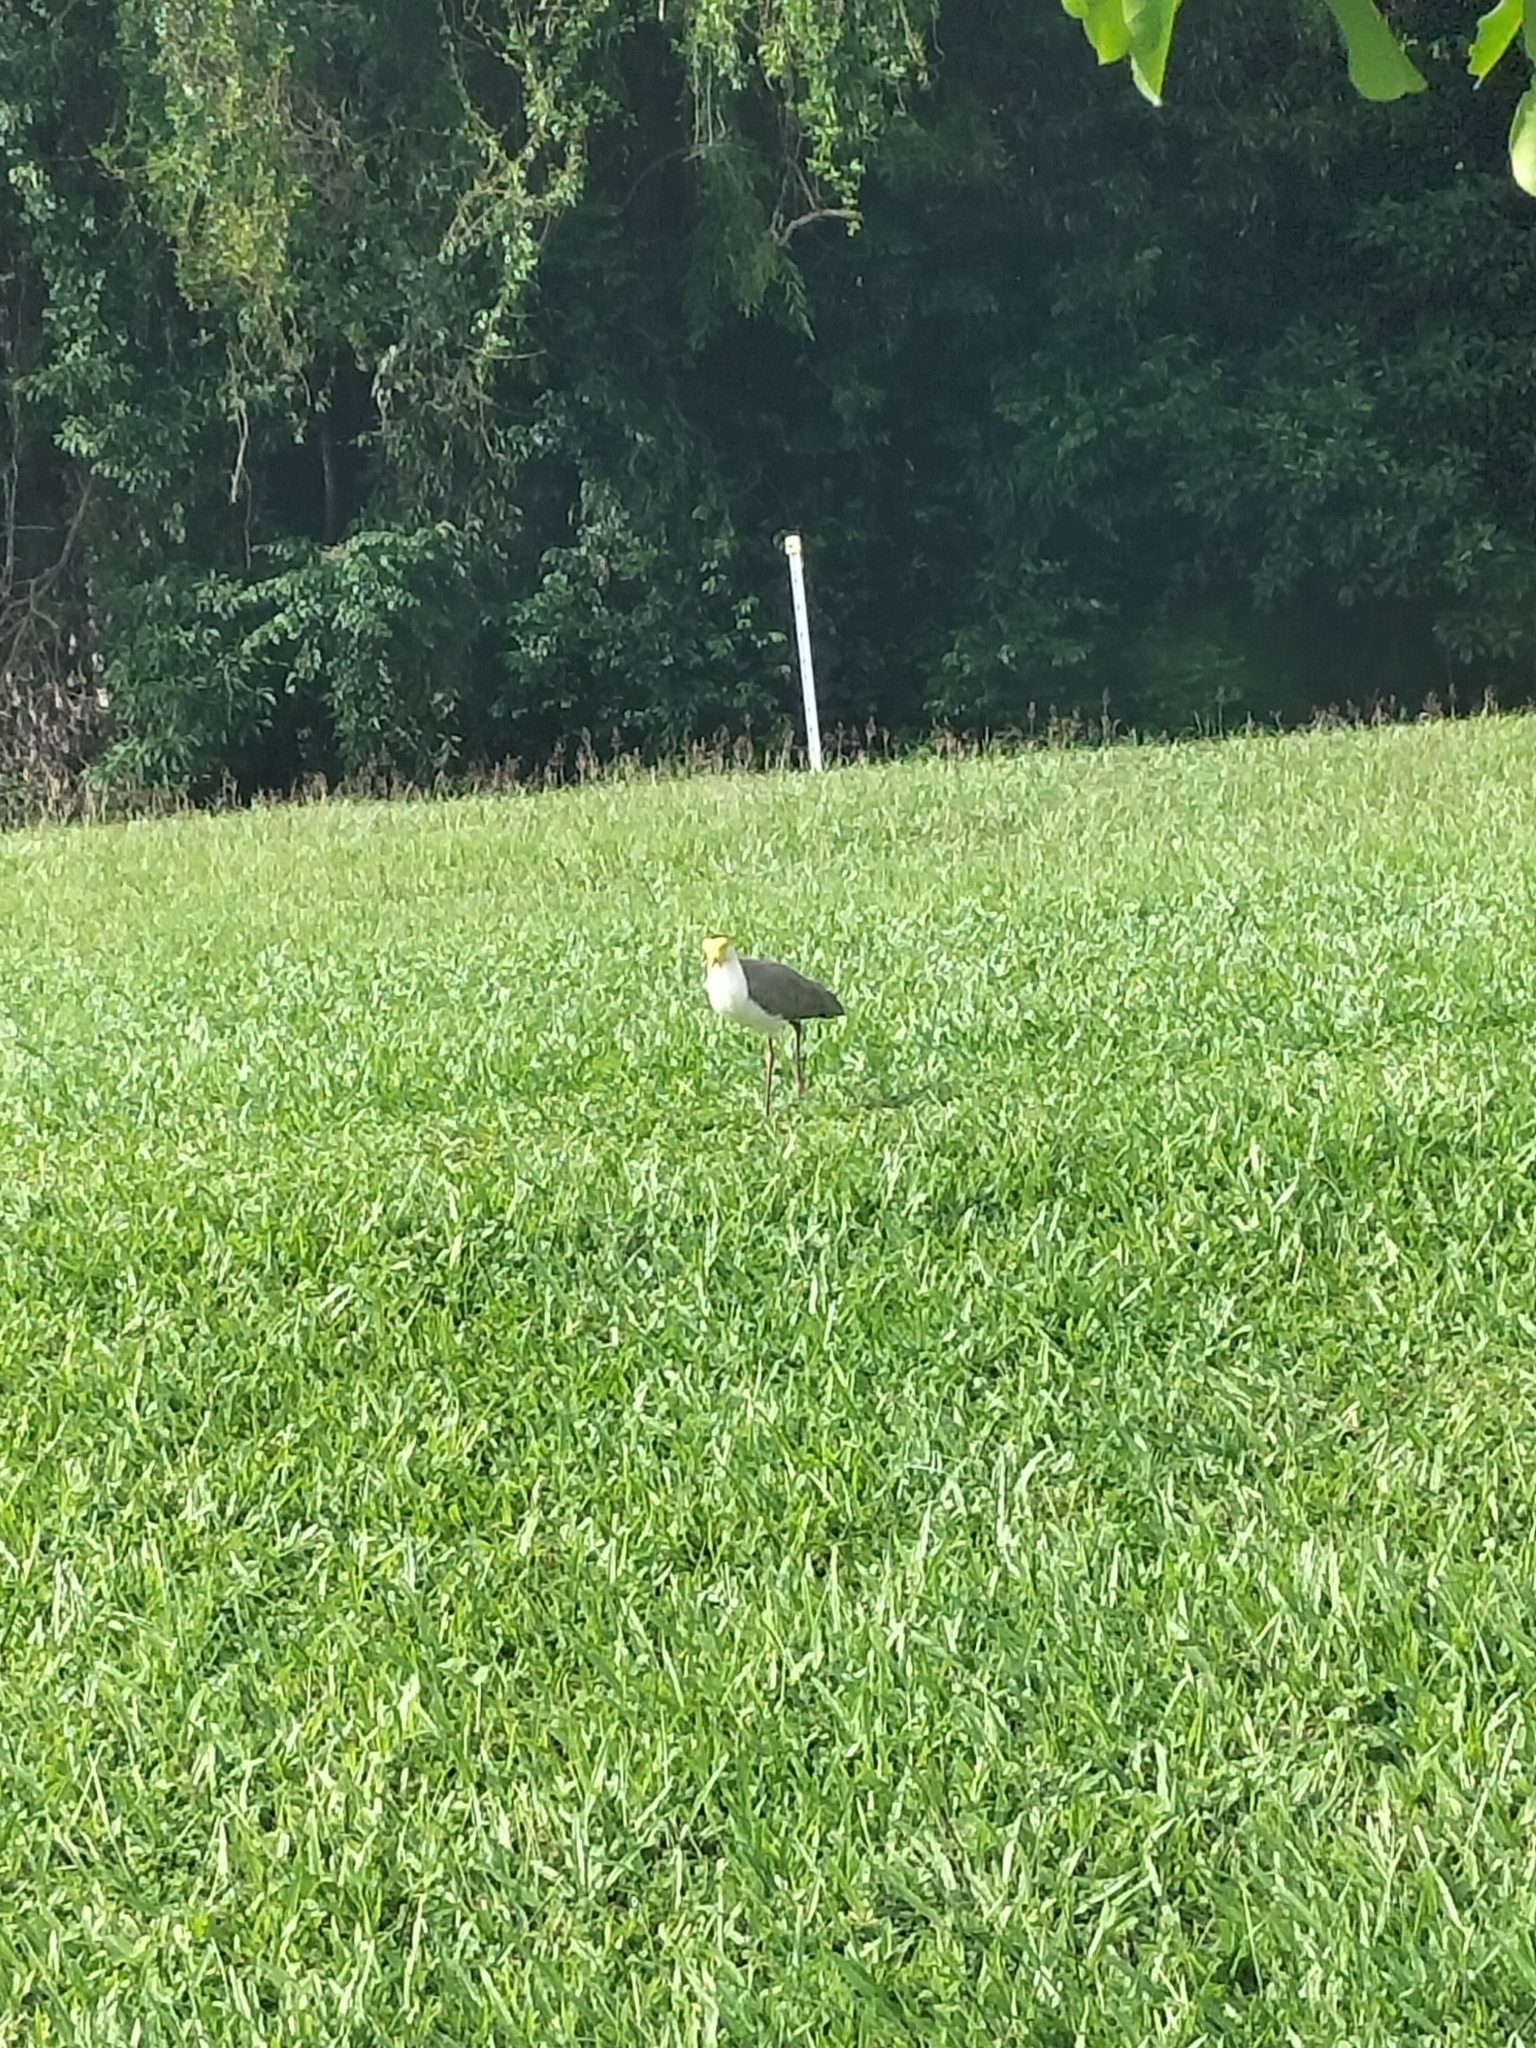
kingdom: Animalia
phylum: Chordata
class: Aves
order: Charadriiformes
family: Charadriidae
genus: Vanellus
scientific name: Vanellus miles
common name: Masked lapwing
